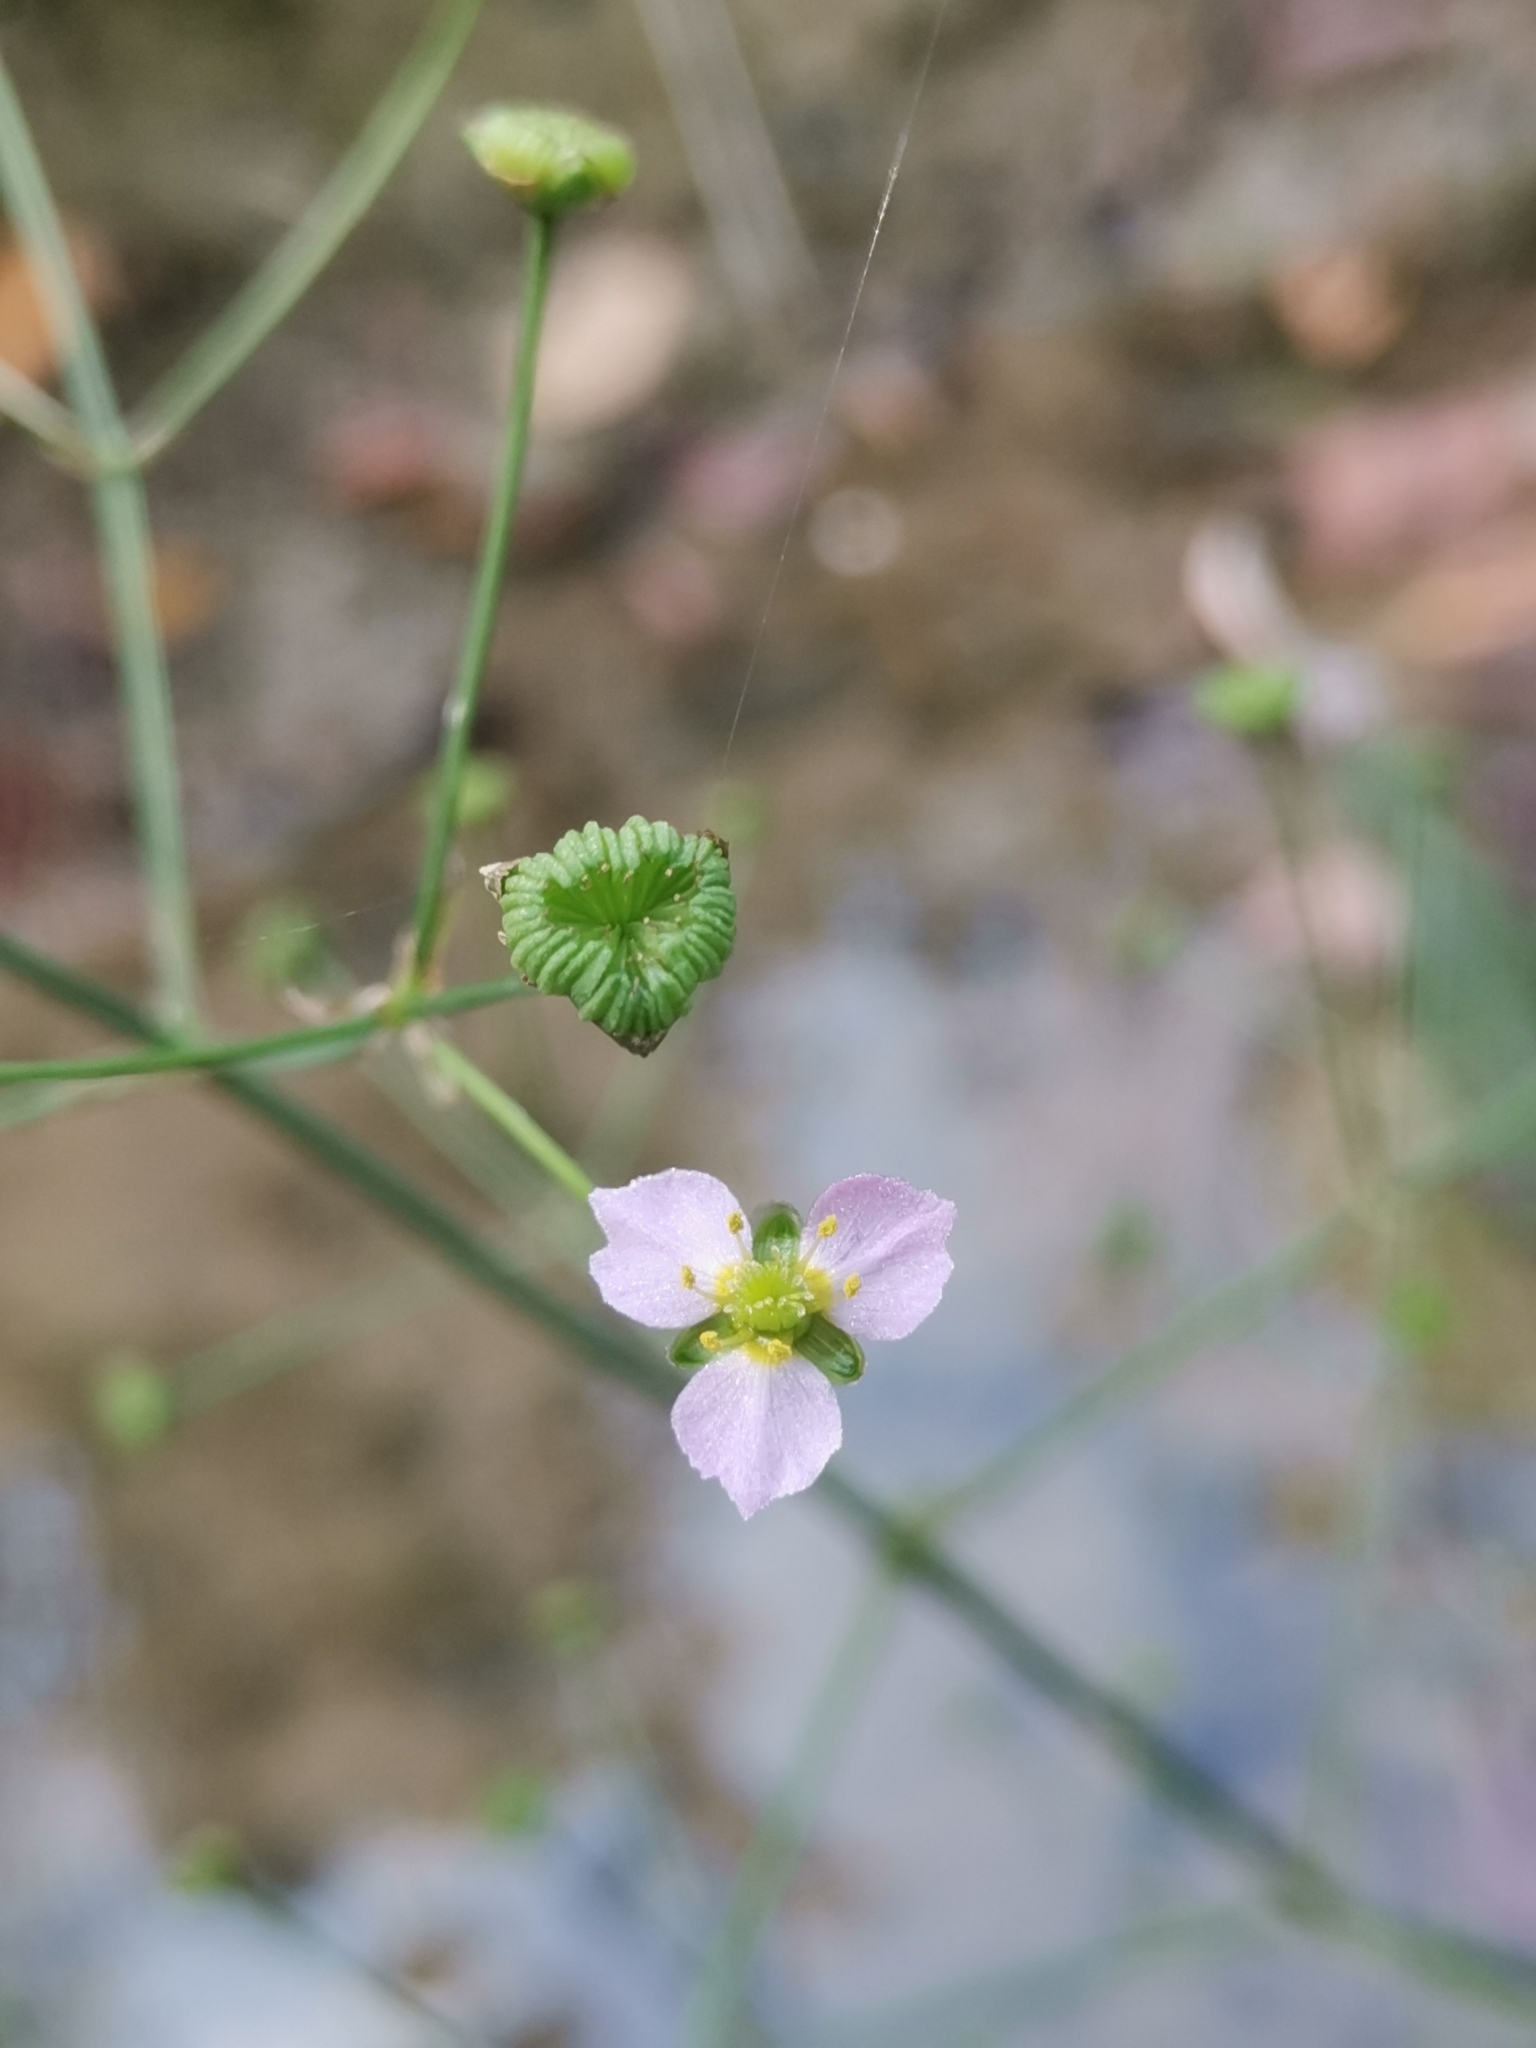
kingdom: Plantae
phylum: Tracheophyta
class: Liliopsida
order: Alismatales
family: Alismataceae
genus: Alisma
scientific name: Alisma lanceolatum
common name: Narrow-leaved water-plantain
